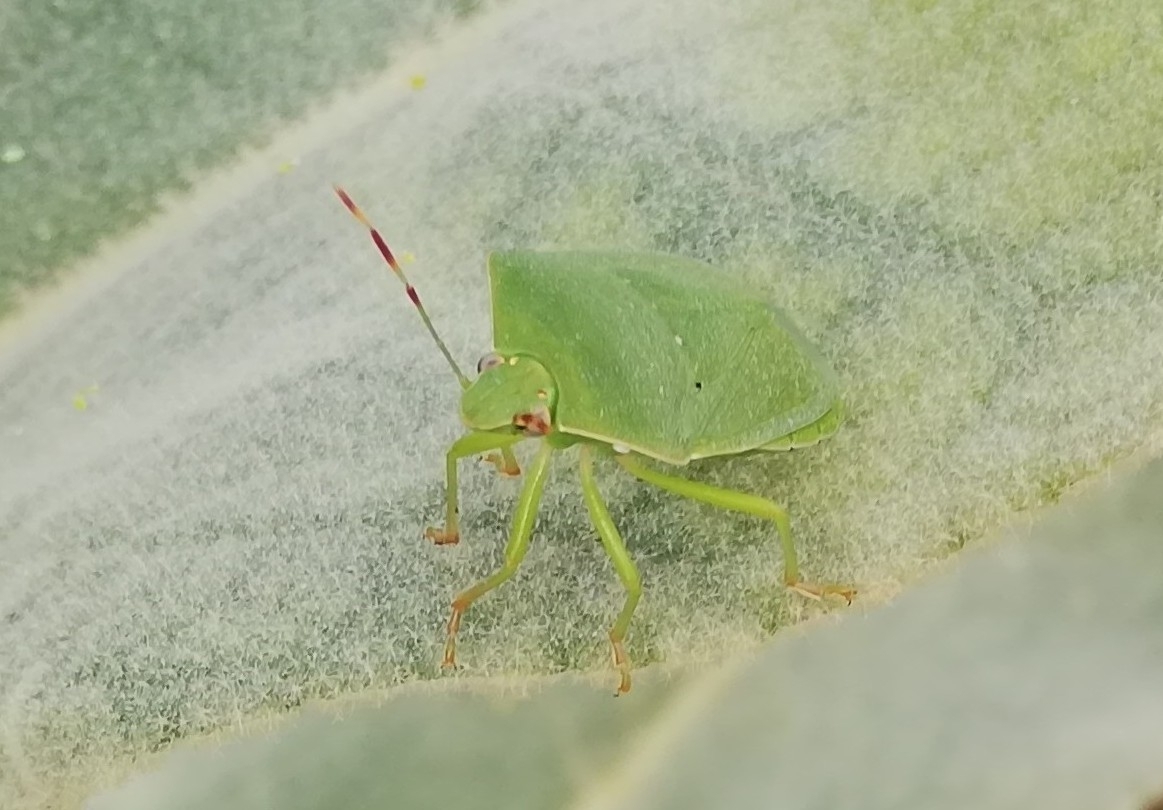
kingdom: Animalia
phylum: Arthropoda
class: Insecta
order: Hemiptera
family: Pentatomidae
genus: Nezara
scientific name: Nezara viridula
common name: Southern green stink bug
